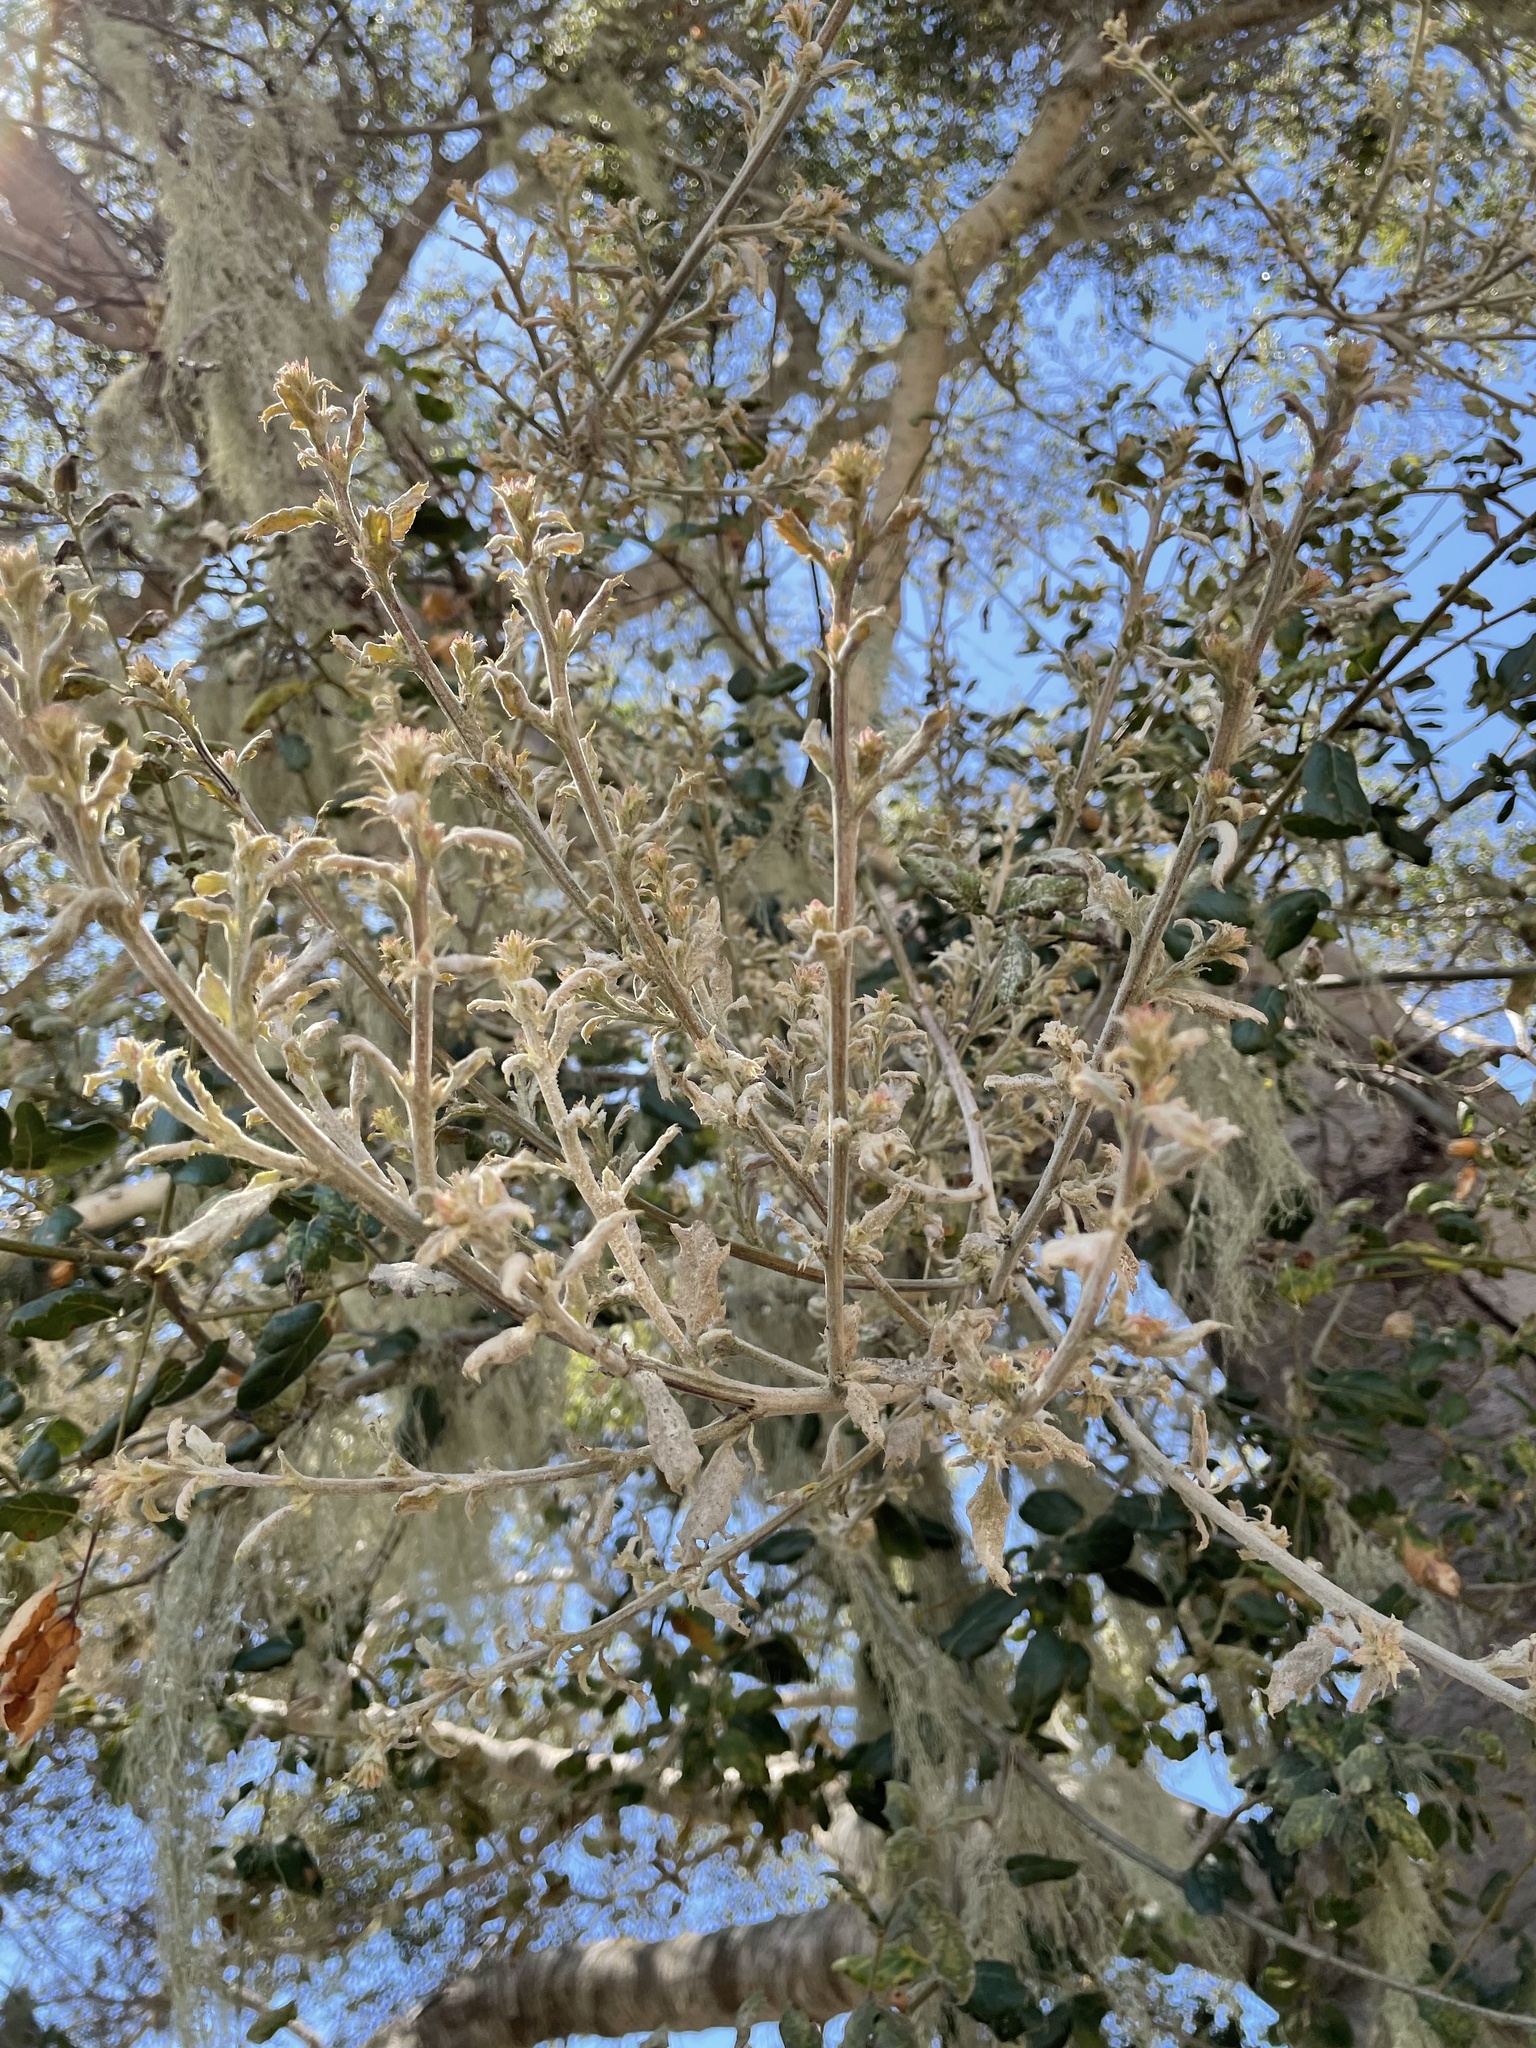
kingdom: Fungi
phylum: Ascomycota
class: Leotiomycetes
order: Helotiales
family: Erysiphaceae
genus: Cystotheca
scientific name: Cystotheca lanestris
